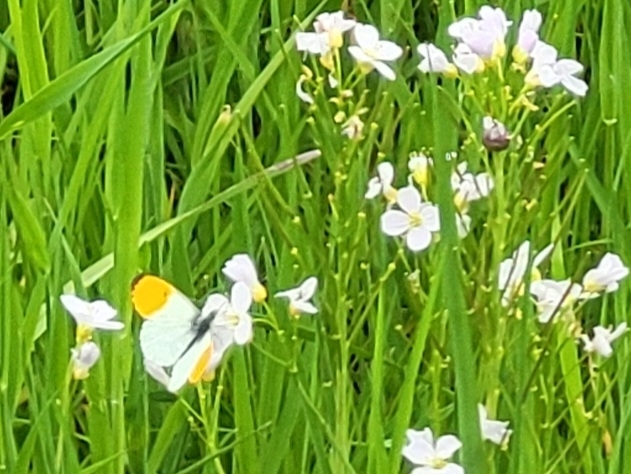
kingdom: Animalia
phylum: Arthropoda
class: Insecta
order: Lepidoptera
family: Pieridae
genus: Anthocharis
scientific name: Anthocharis cardamines
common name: Orange-tip
